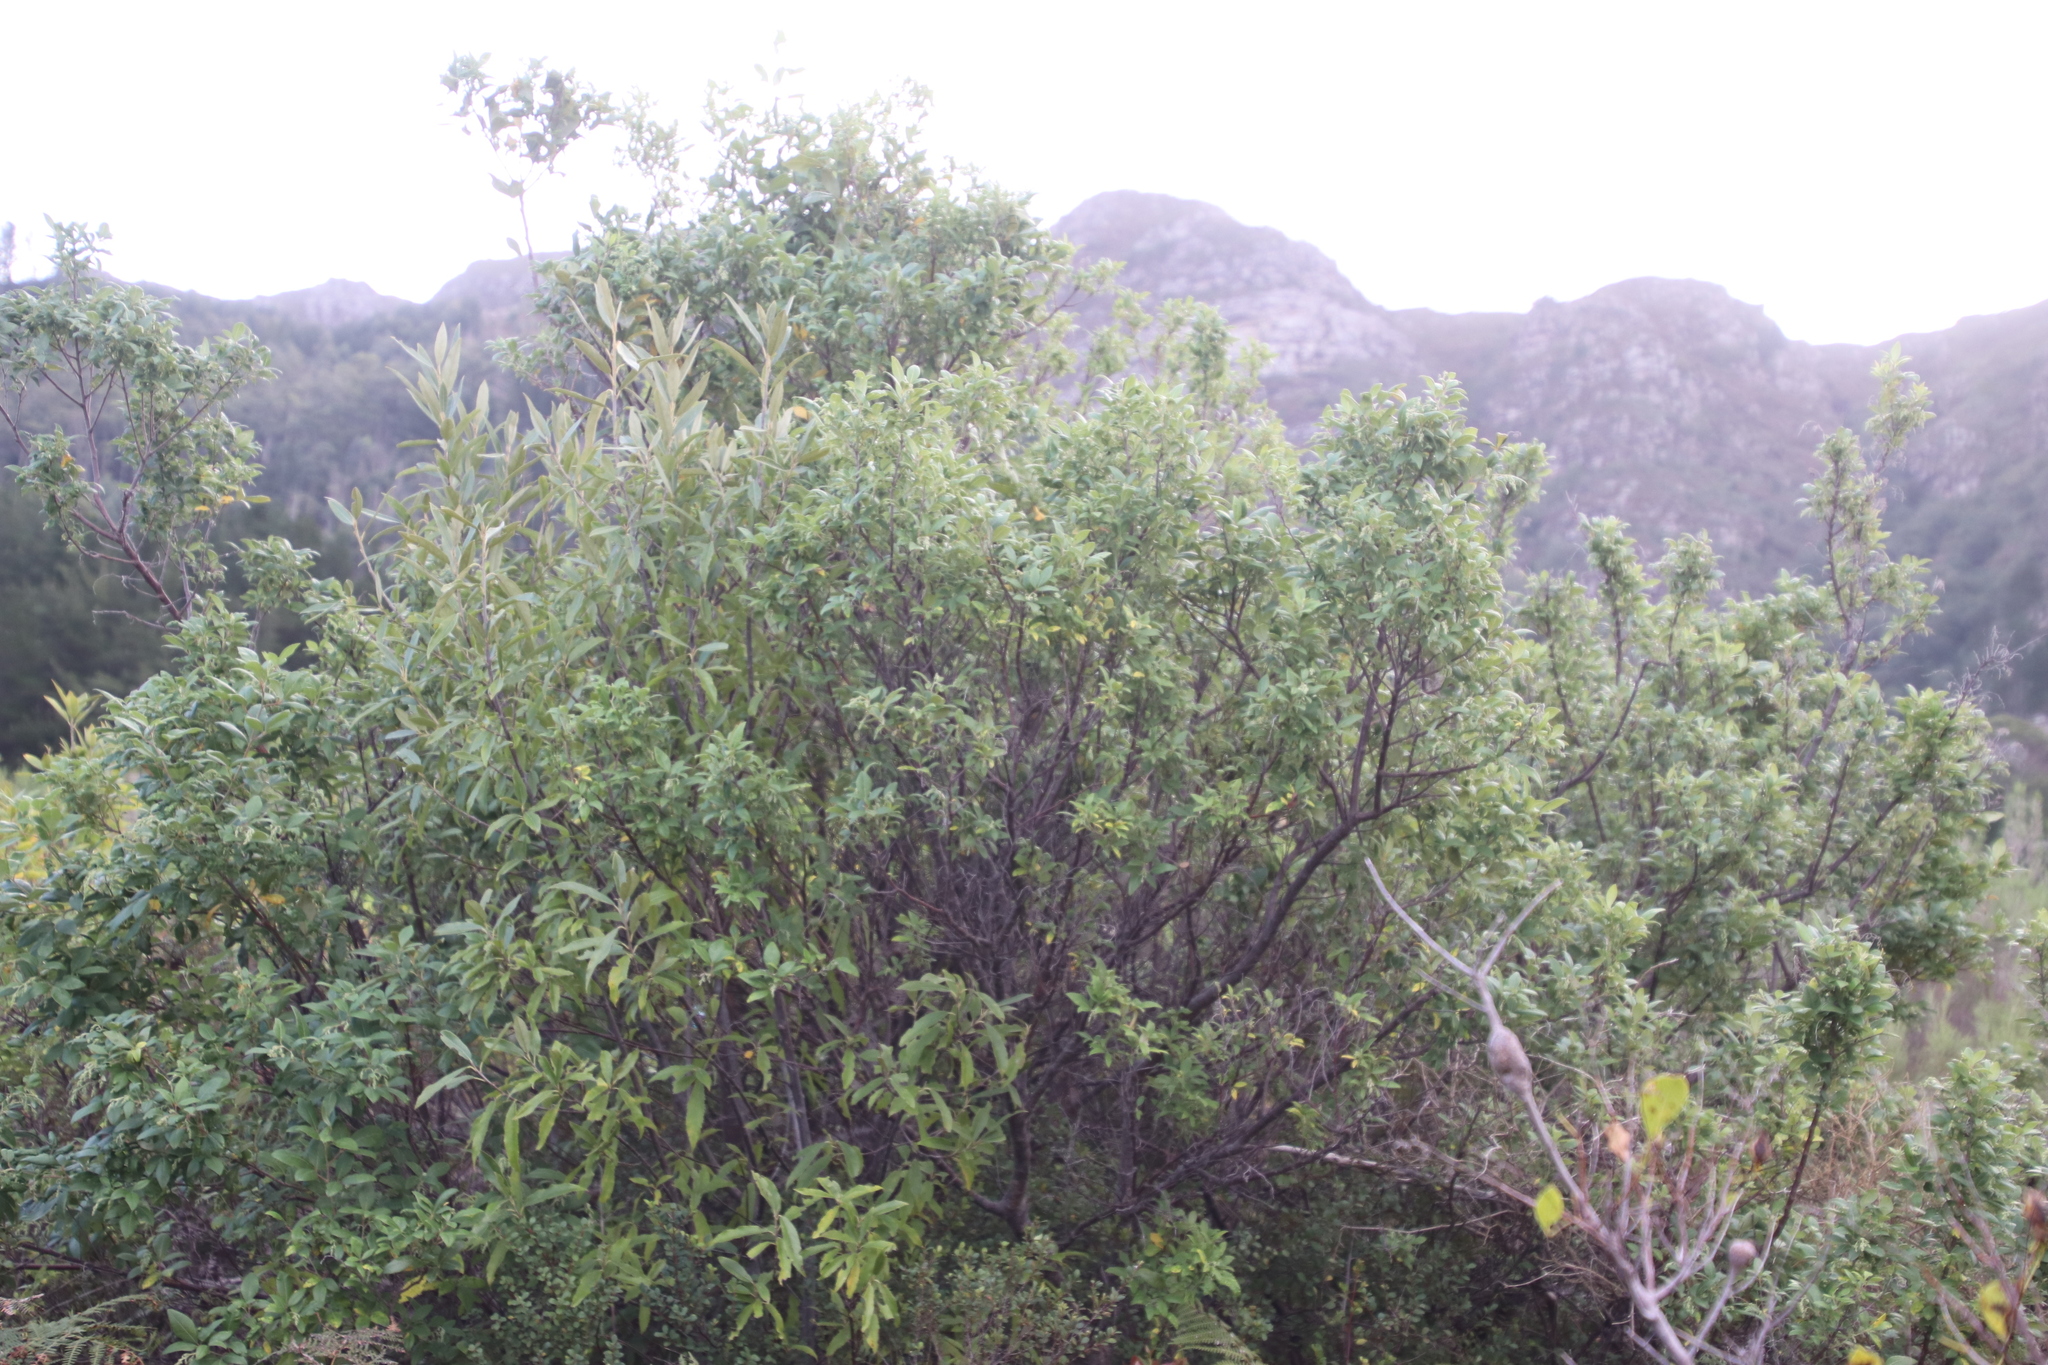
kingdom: Plantae
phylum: Tracheophyta
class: Magnoliopsida
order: Sapindales
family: Anacardiaceae
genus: Searsia
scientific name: Searsia tomentosa
